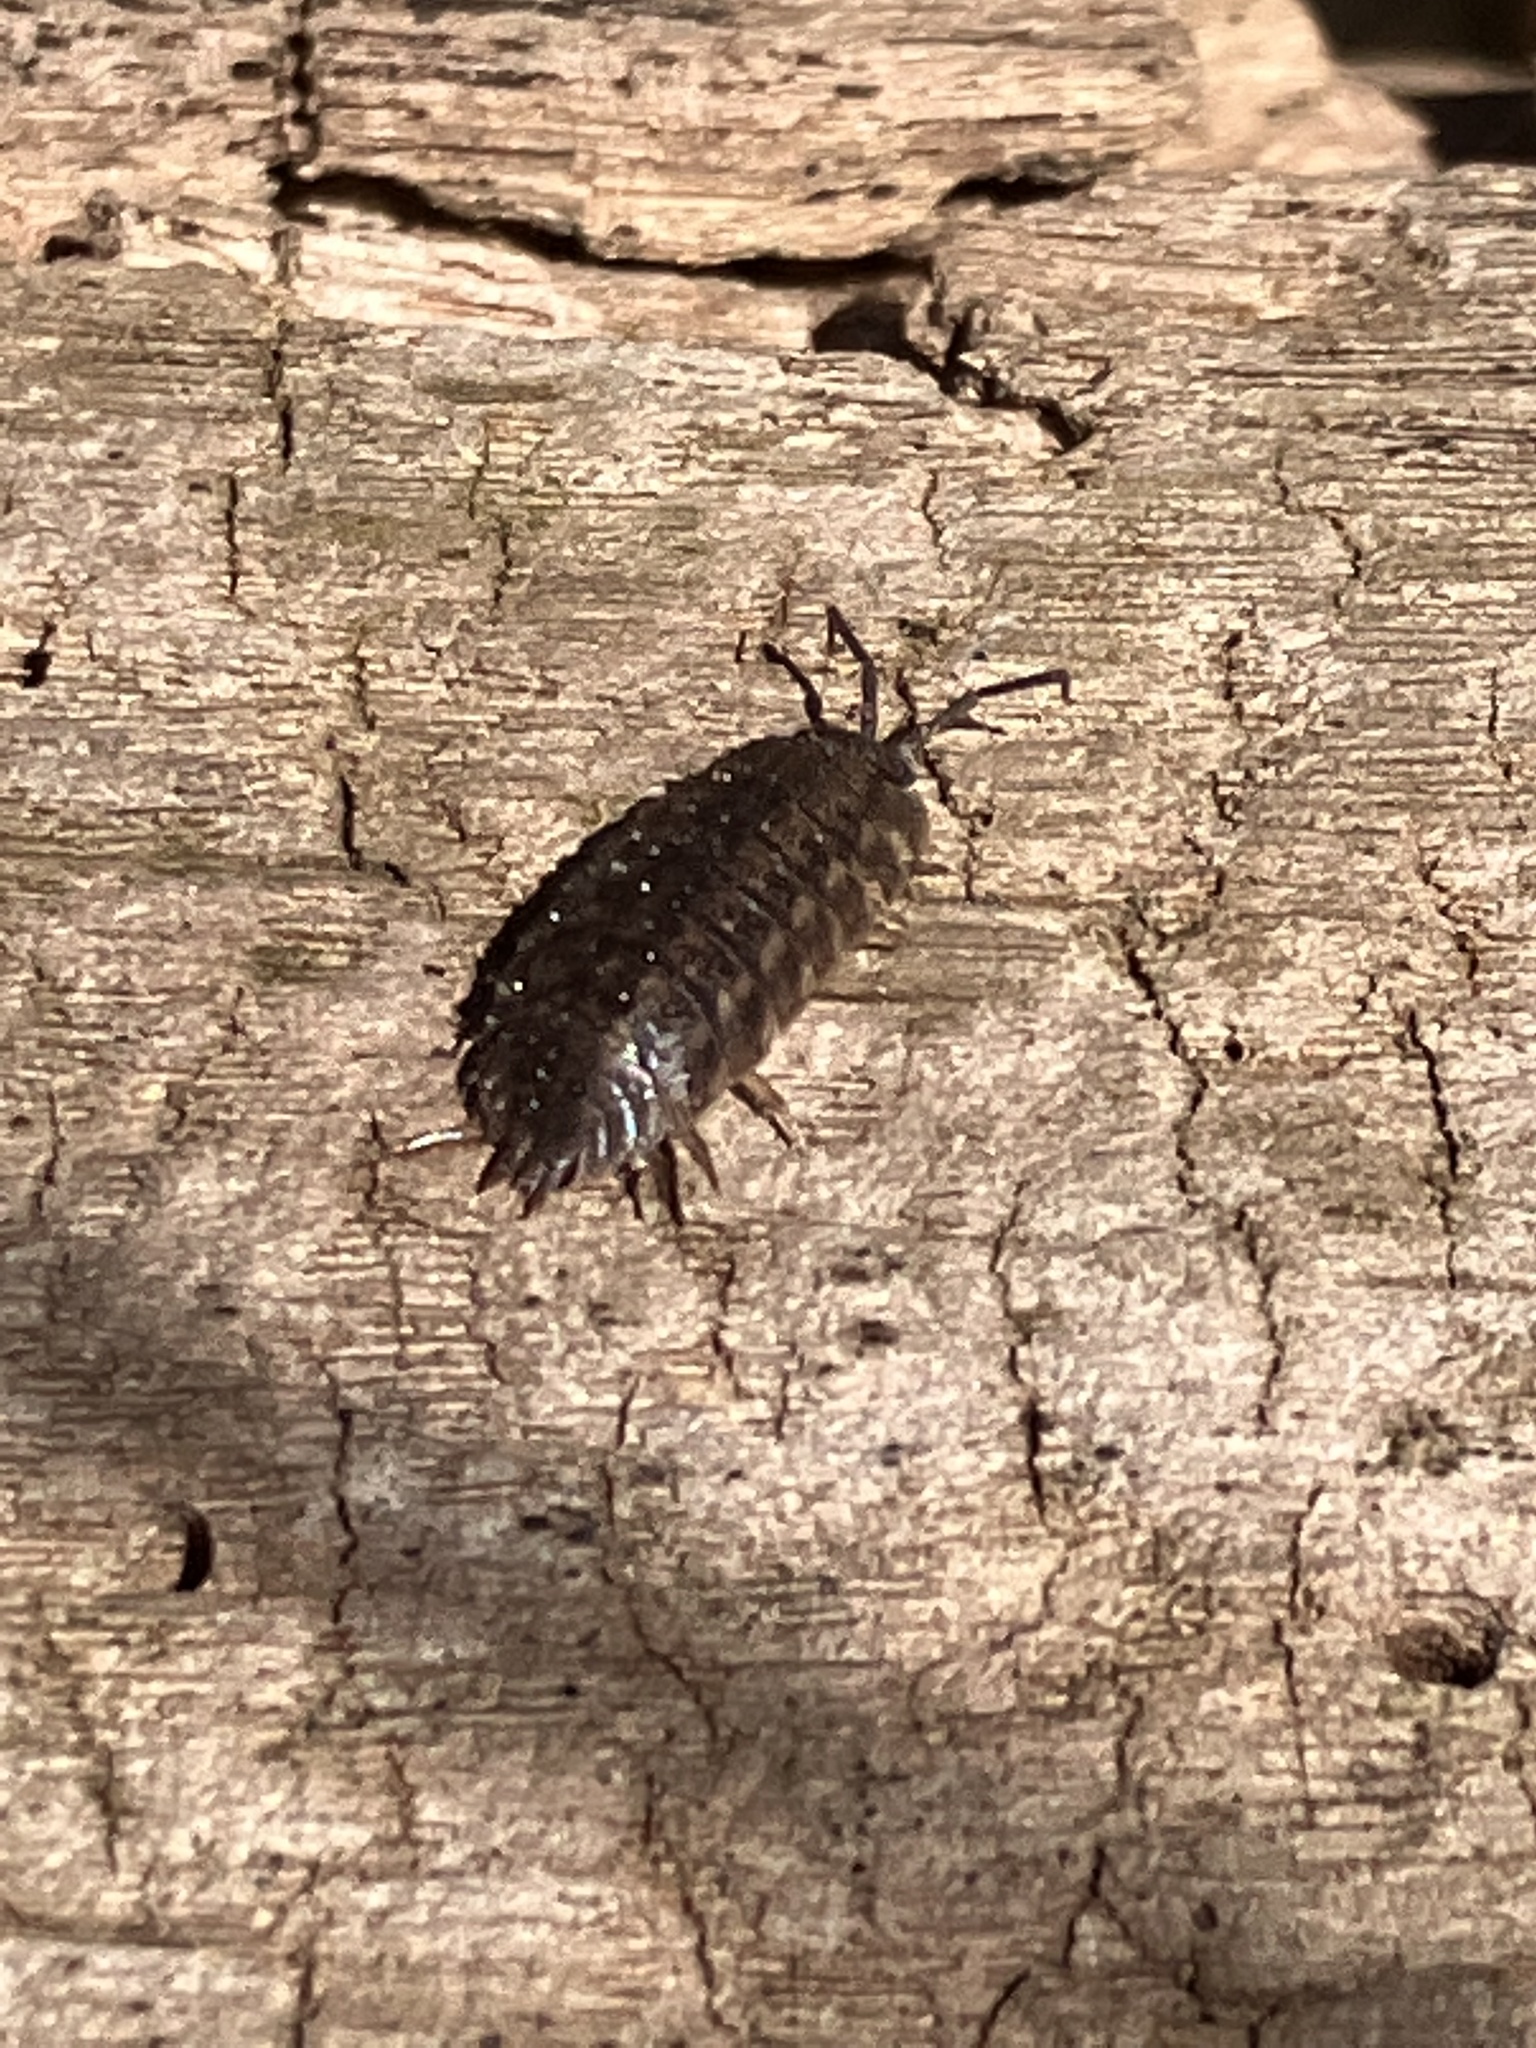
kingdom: Animalia
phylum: Arthropoda
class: Malacostraca
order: Isopoda
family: Trachelipodidae
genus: Trachelipus
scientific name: Trachelipus rathkii
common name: Isopod
